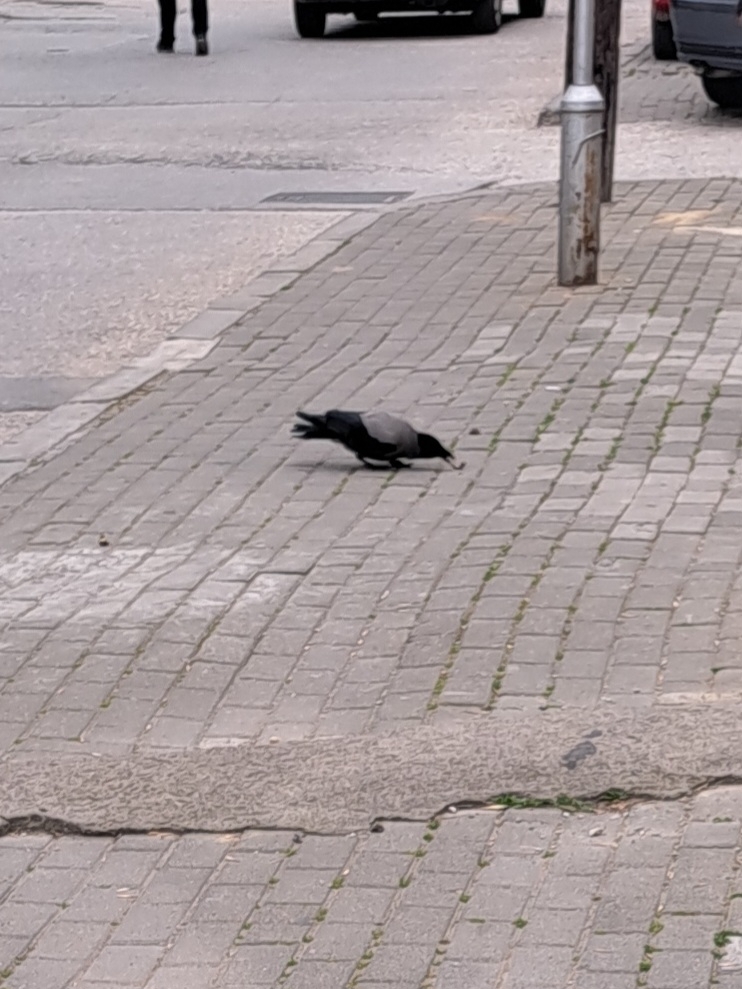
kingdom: Animalia
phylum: Chordata
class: Aves
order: Passeriformes
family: Corvidae
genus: Corvus
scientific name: Corvus cornix
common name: Hooded crow
